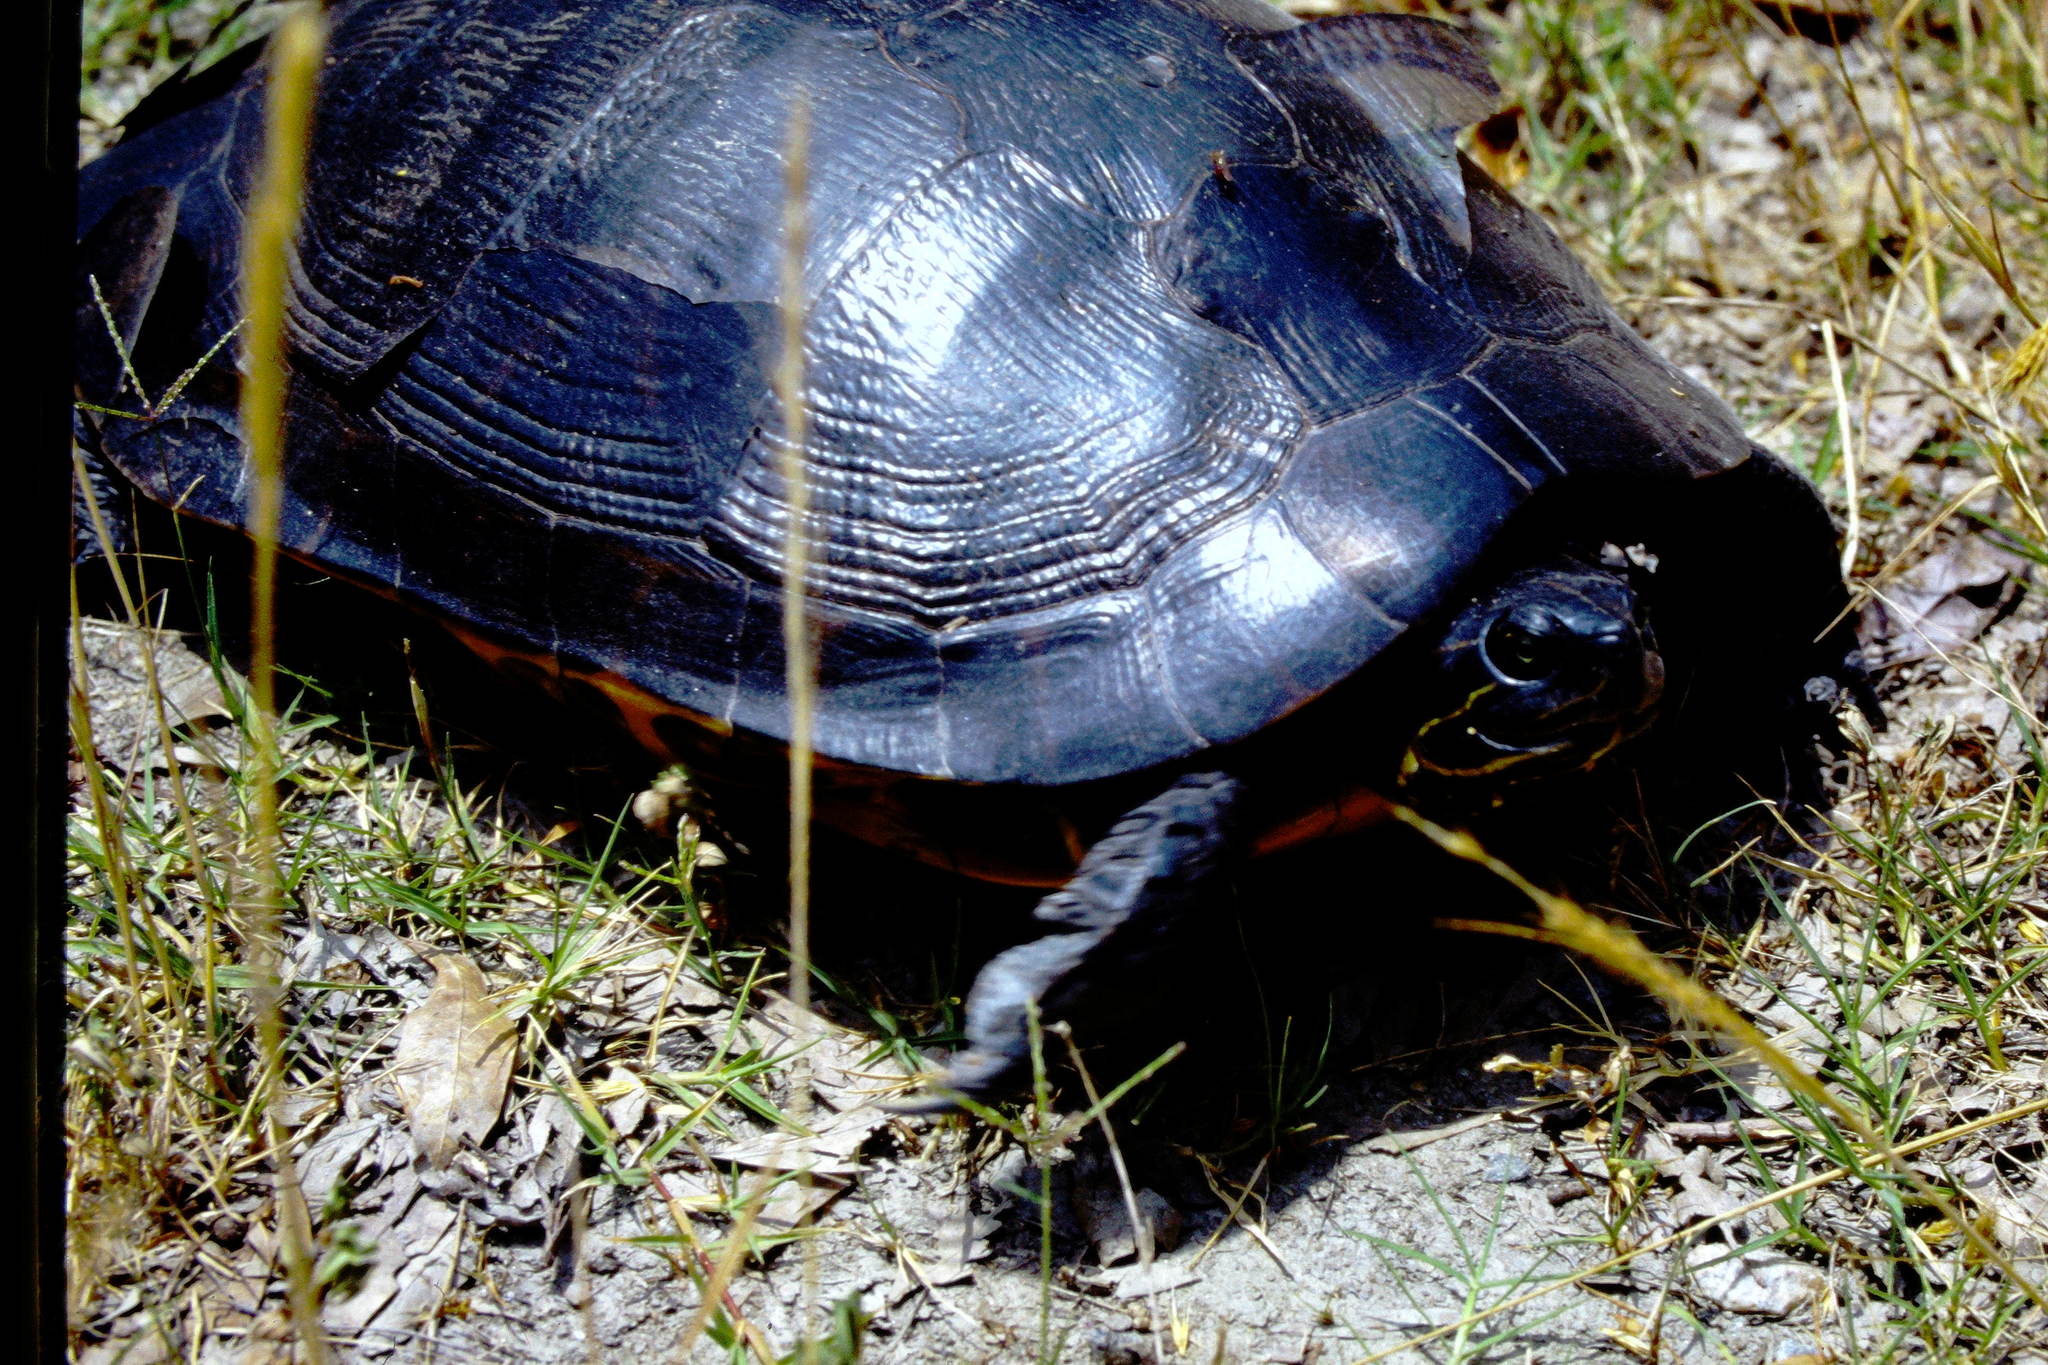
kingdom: Animalia
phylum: Chordata
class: Testudines
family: Emydidae
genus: Pseudemys
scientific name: Pseudemys rubriventris
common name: American red-bellied turtle
